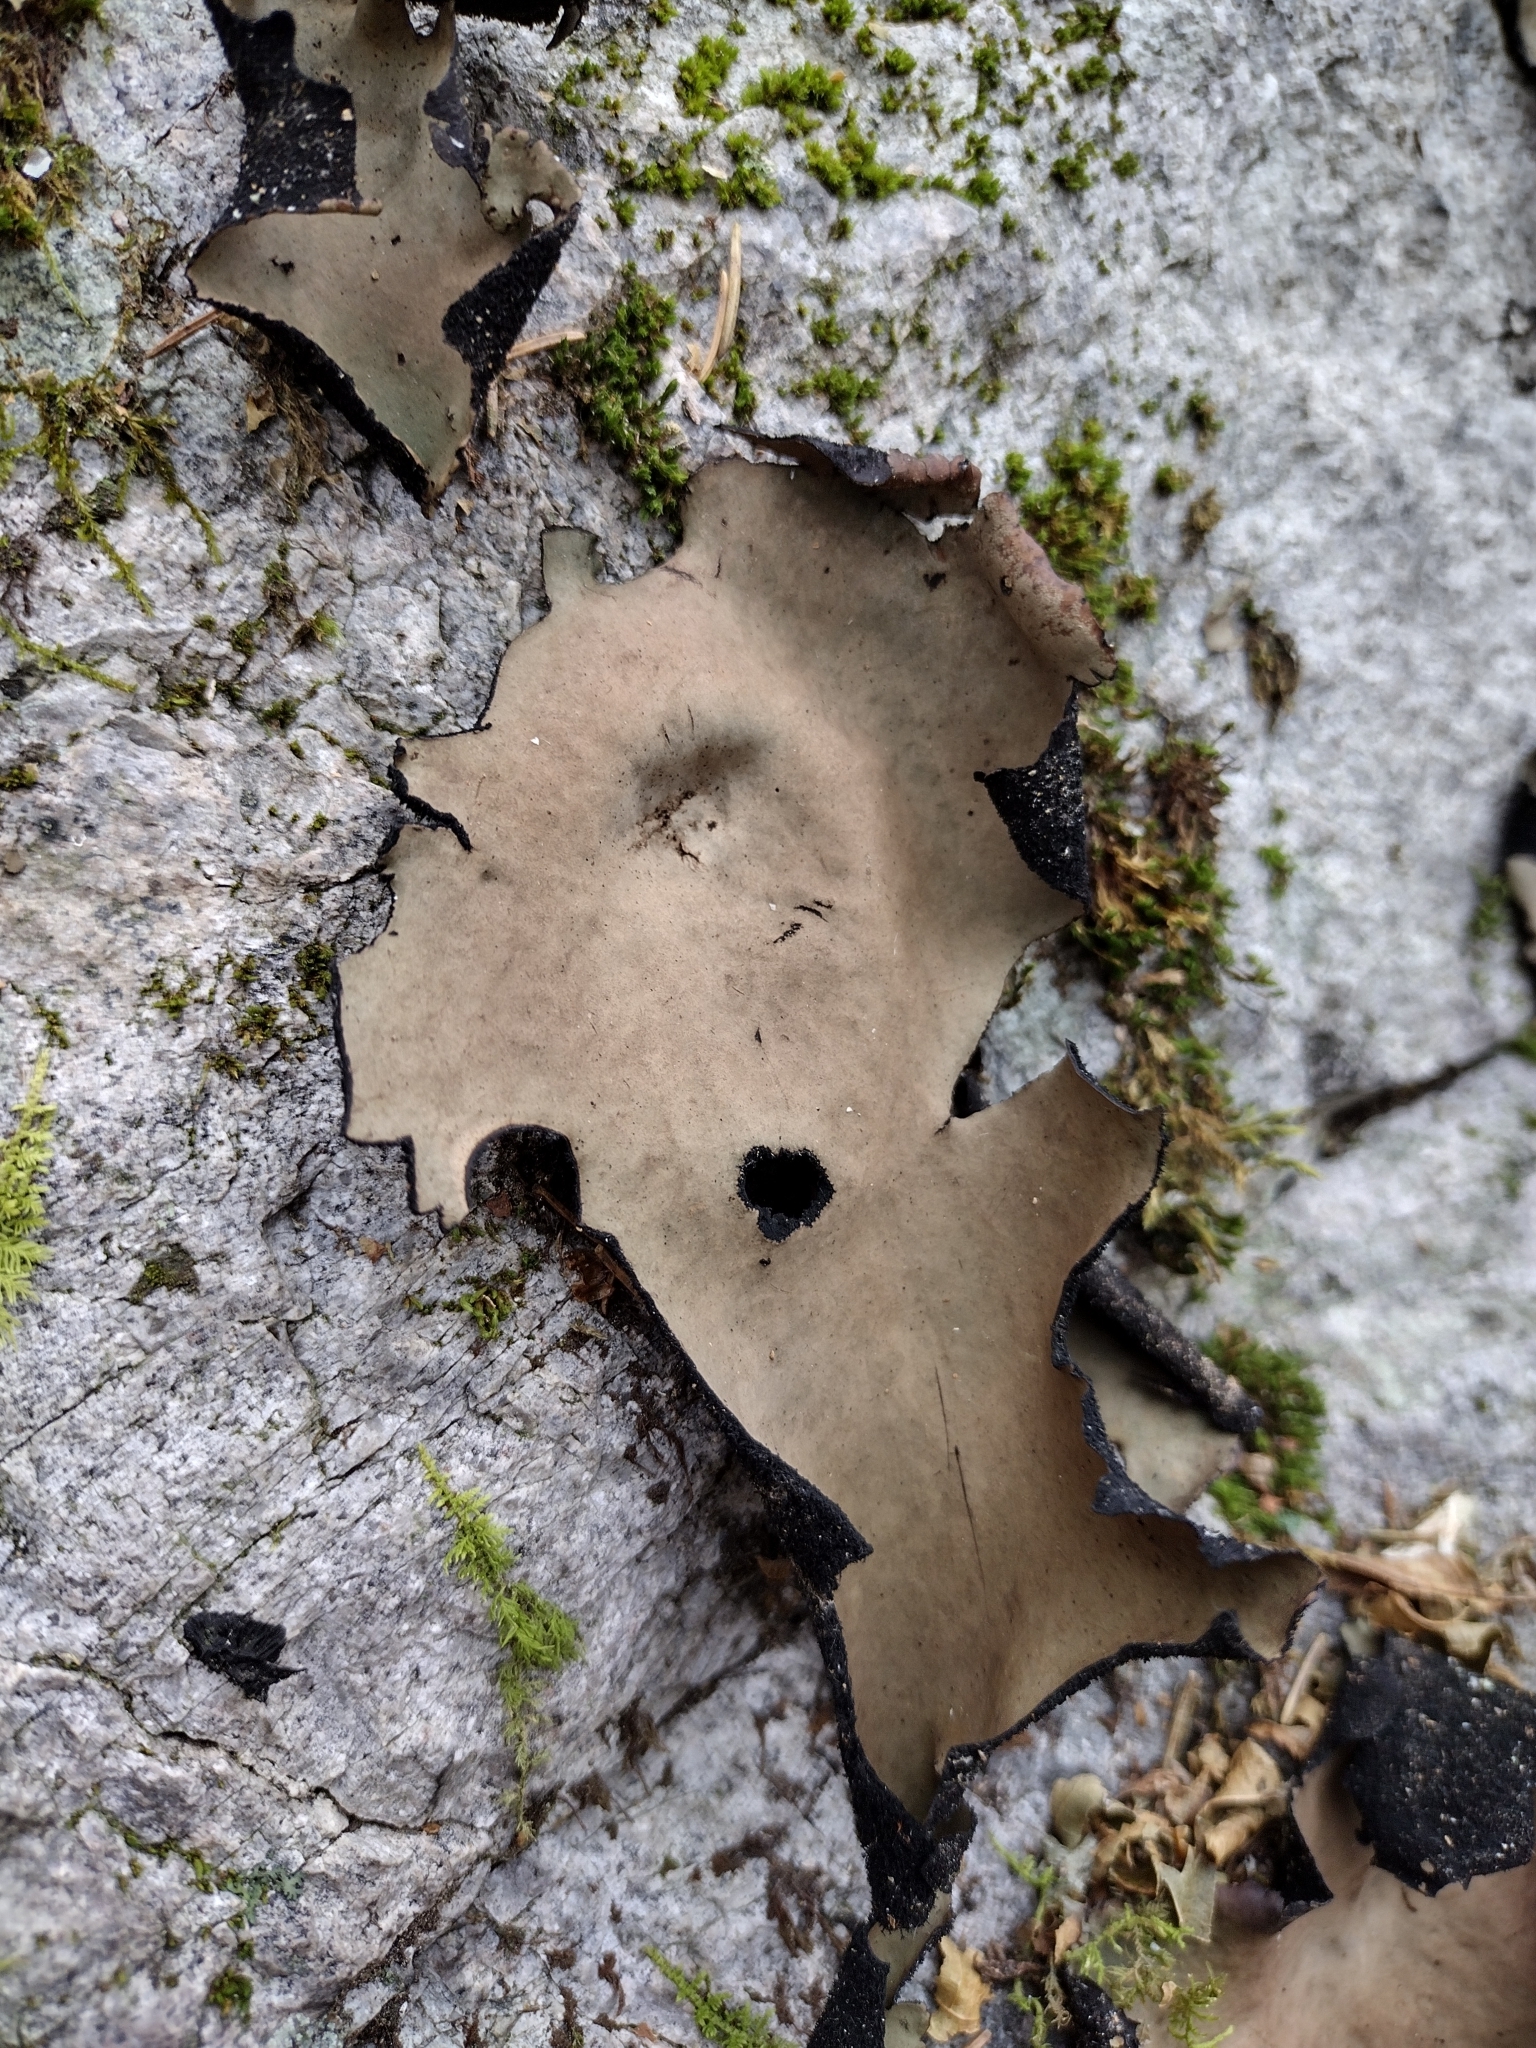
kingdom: Fungi
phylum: Ascomycota
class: Lecanoromycetes
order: Umbilicariales
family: Umbilicariaceae
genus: Umbilicaria
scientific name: Umbilicaria mammulata
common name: Smooth rock tripe
